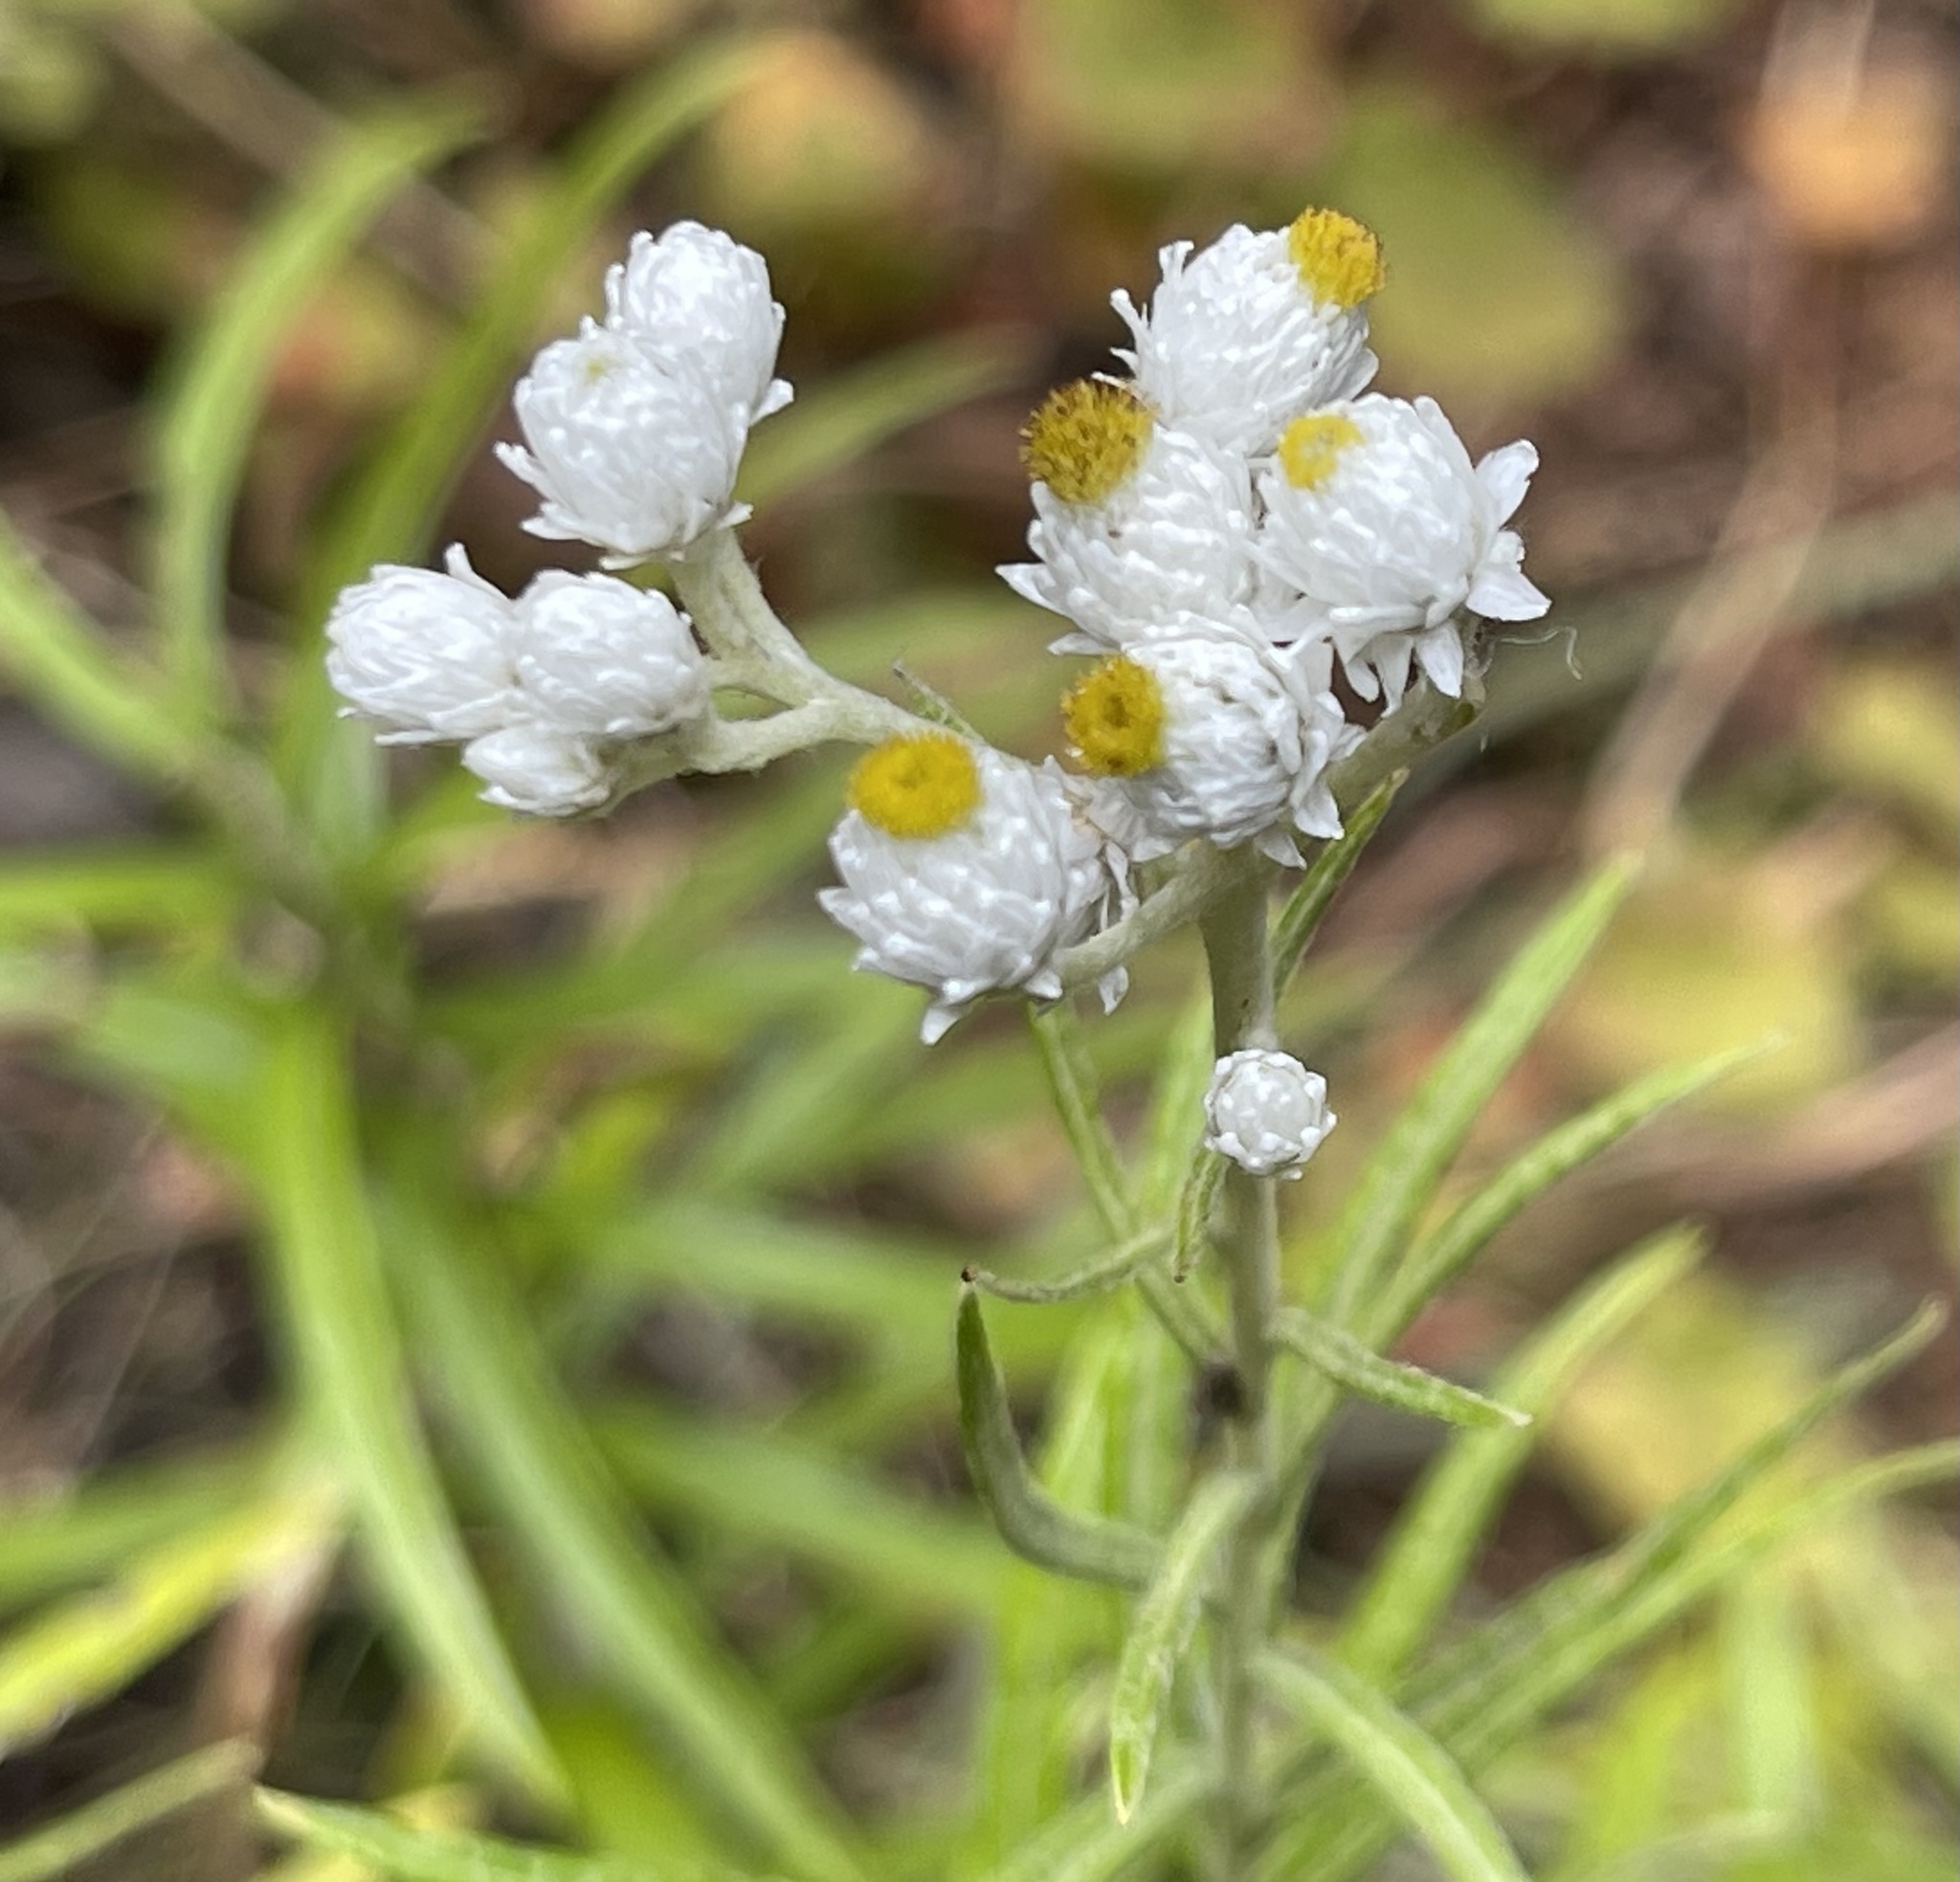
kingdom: Plantae
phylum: Tracheophyta
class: Magnoliopsida
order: Asterales
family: Asteraceae
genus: Anaphalis
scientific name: Anaphalis margaritacea
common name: Pearly everlasting
